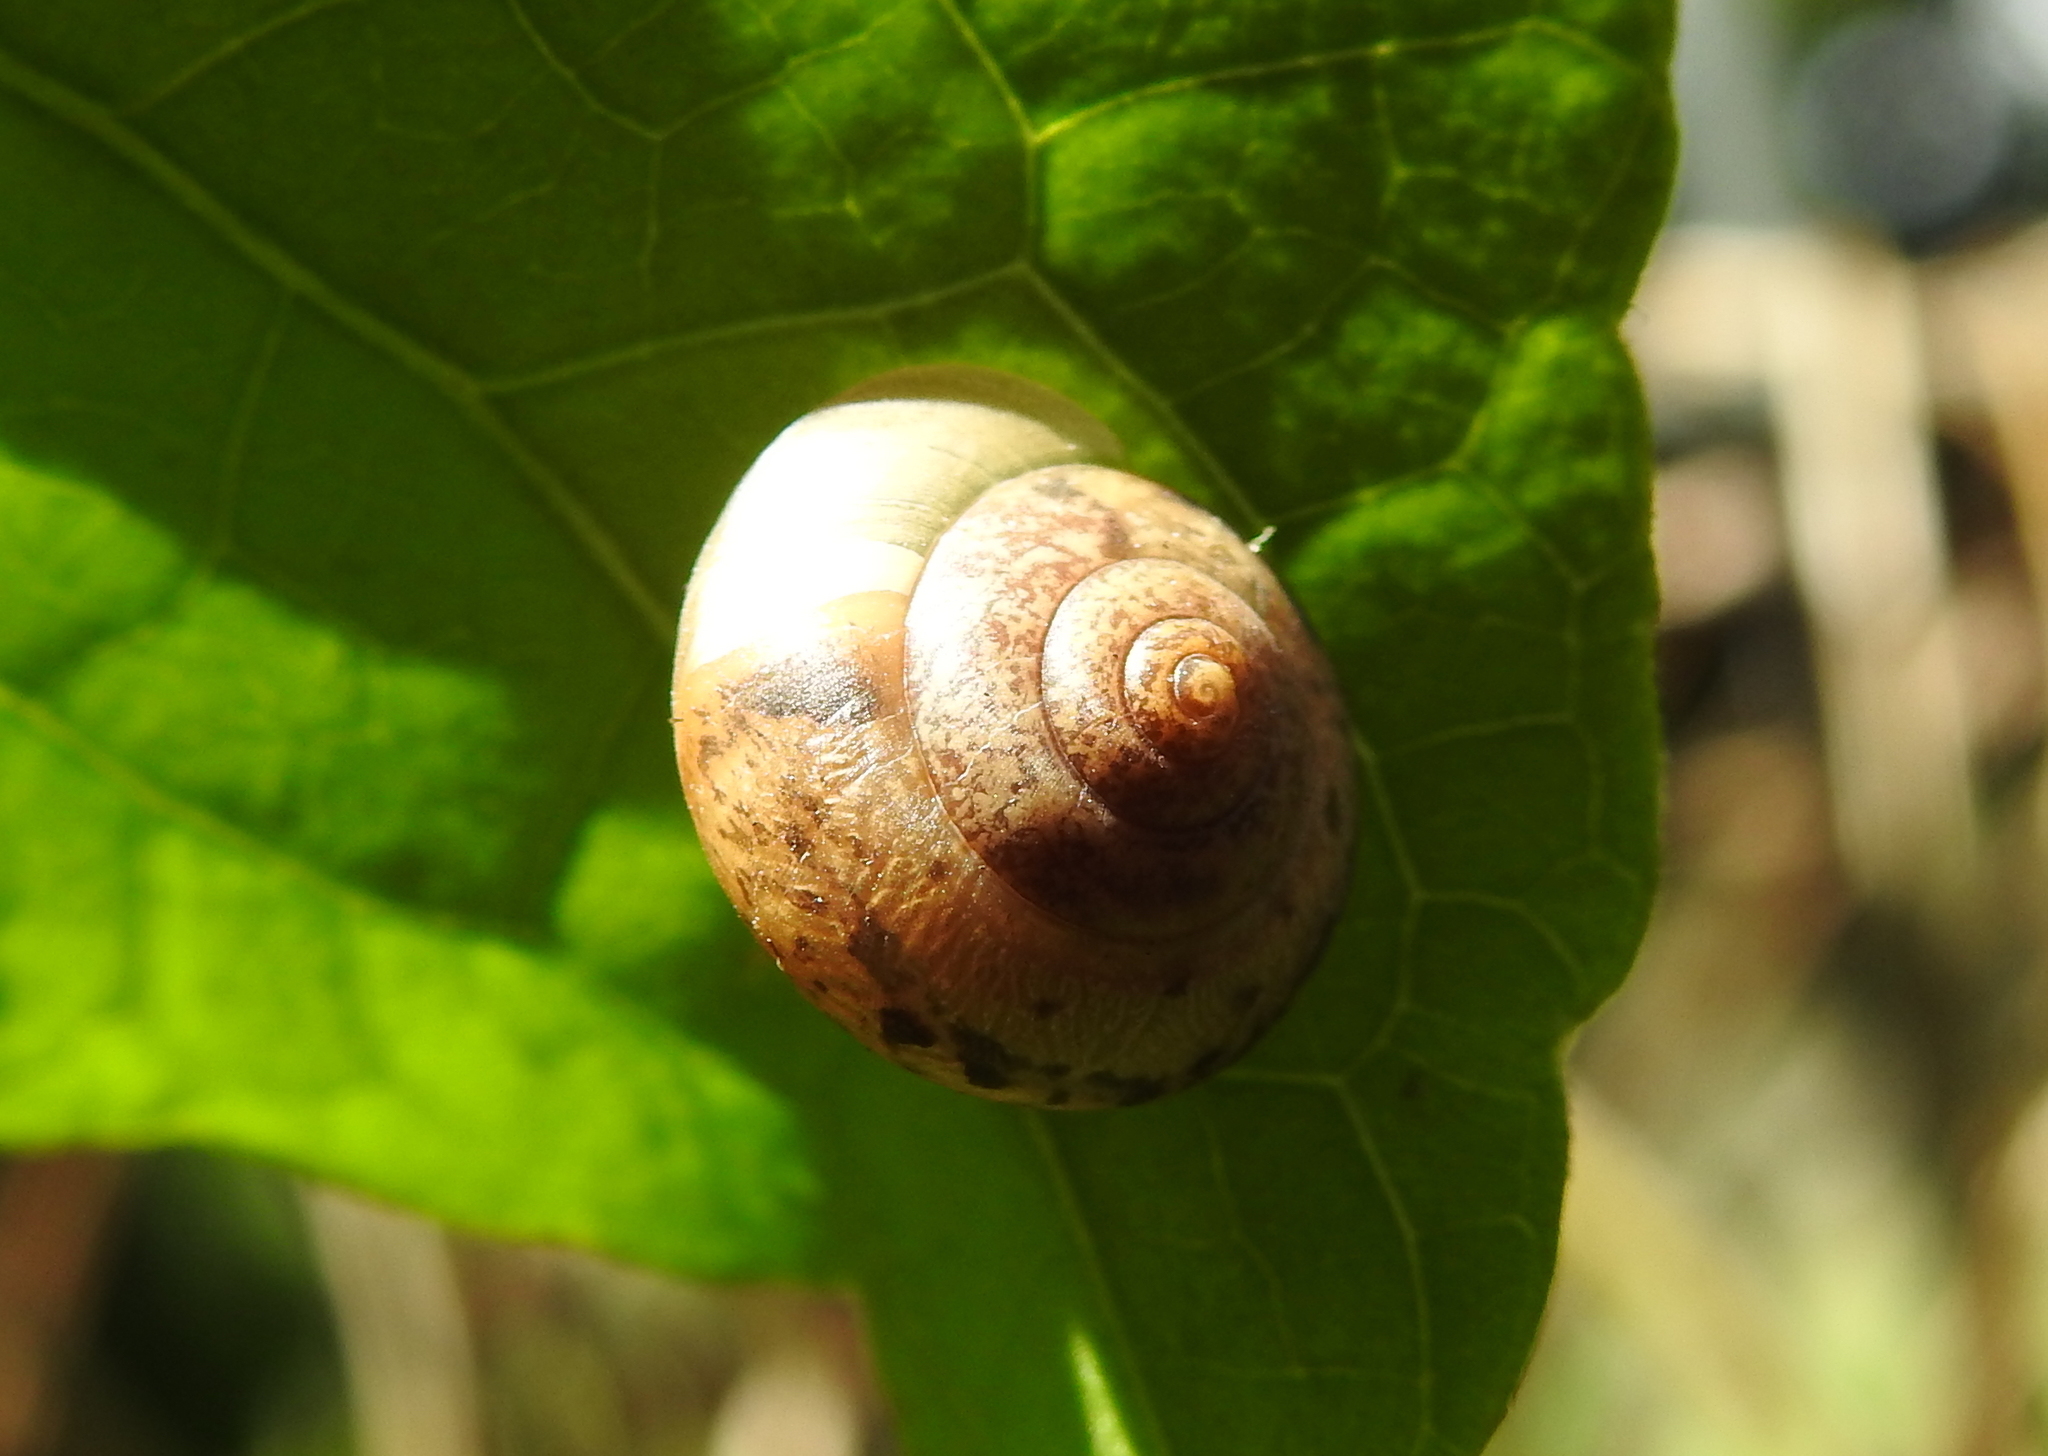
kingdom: Animalia
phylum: Mollusca
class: Gastropoda
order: Stylommatophora
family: Camaenidae
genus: Bradybaena
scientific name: Bradybaena similaris
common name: Asian trampsnail
